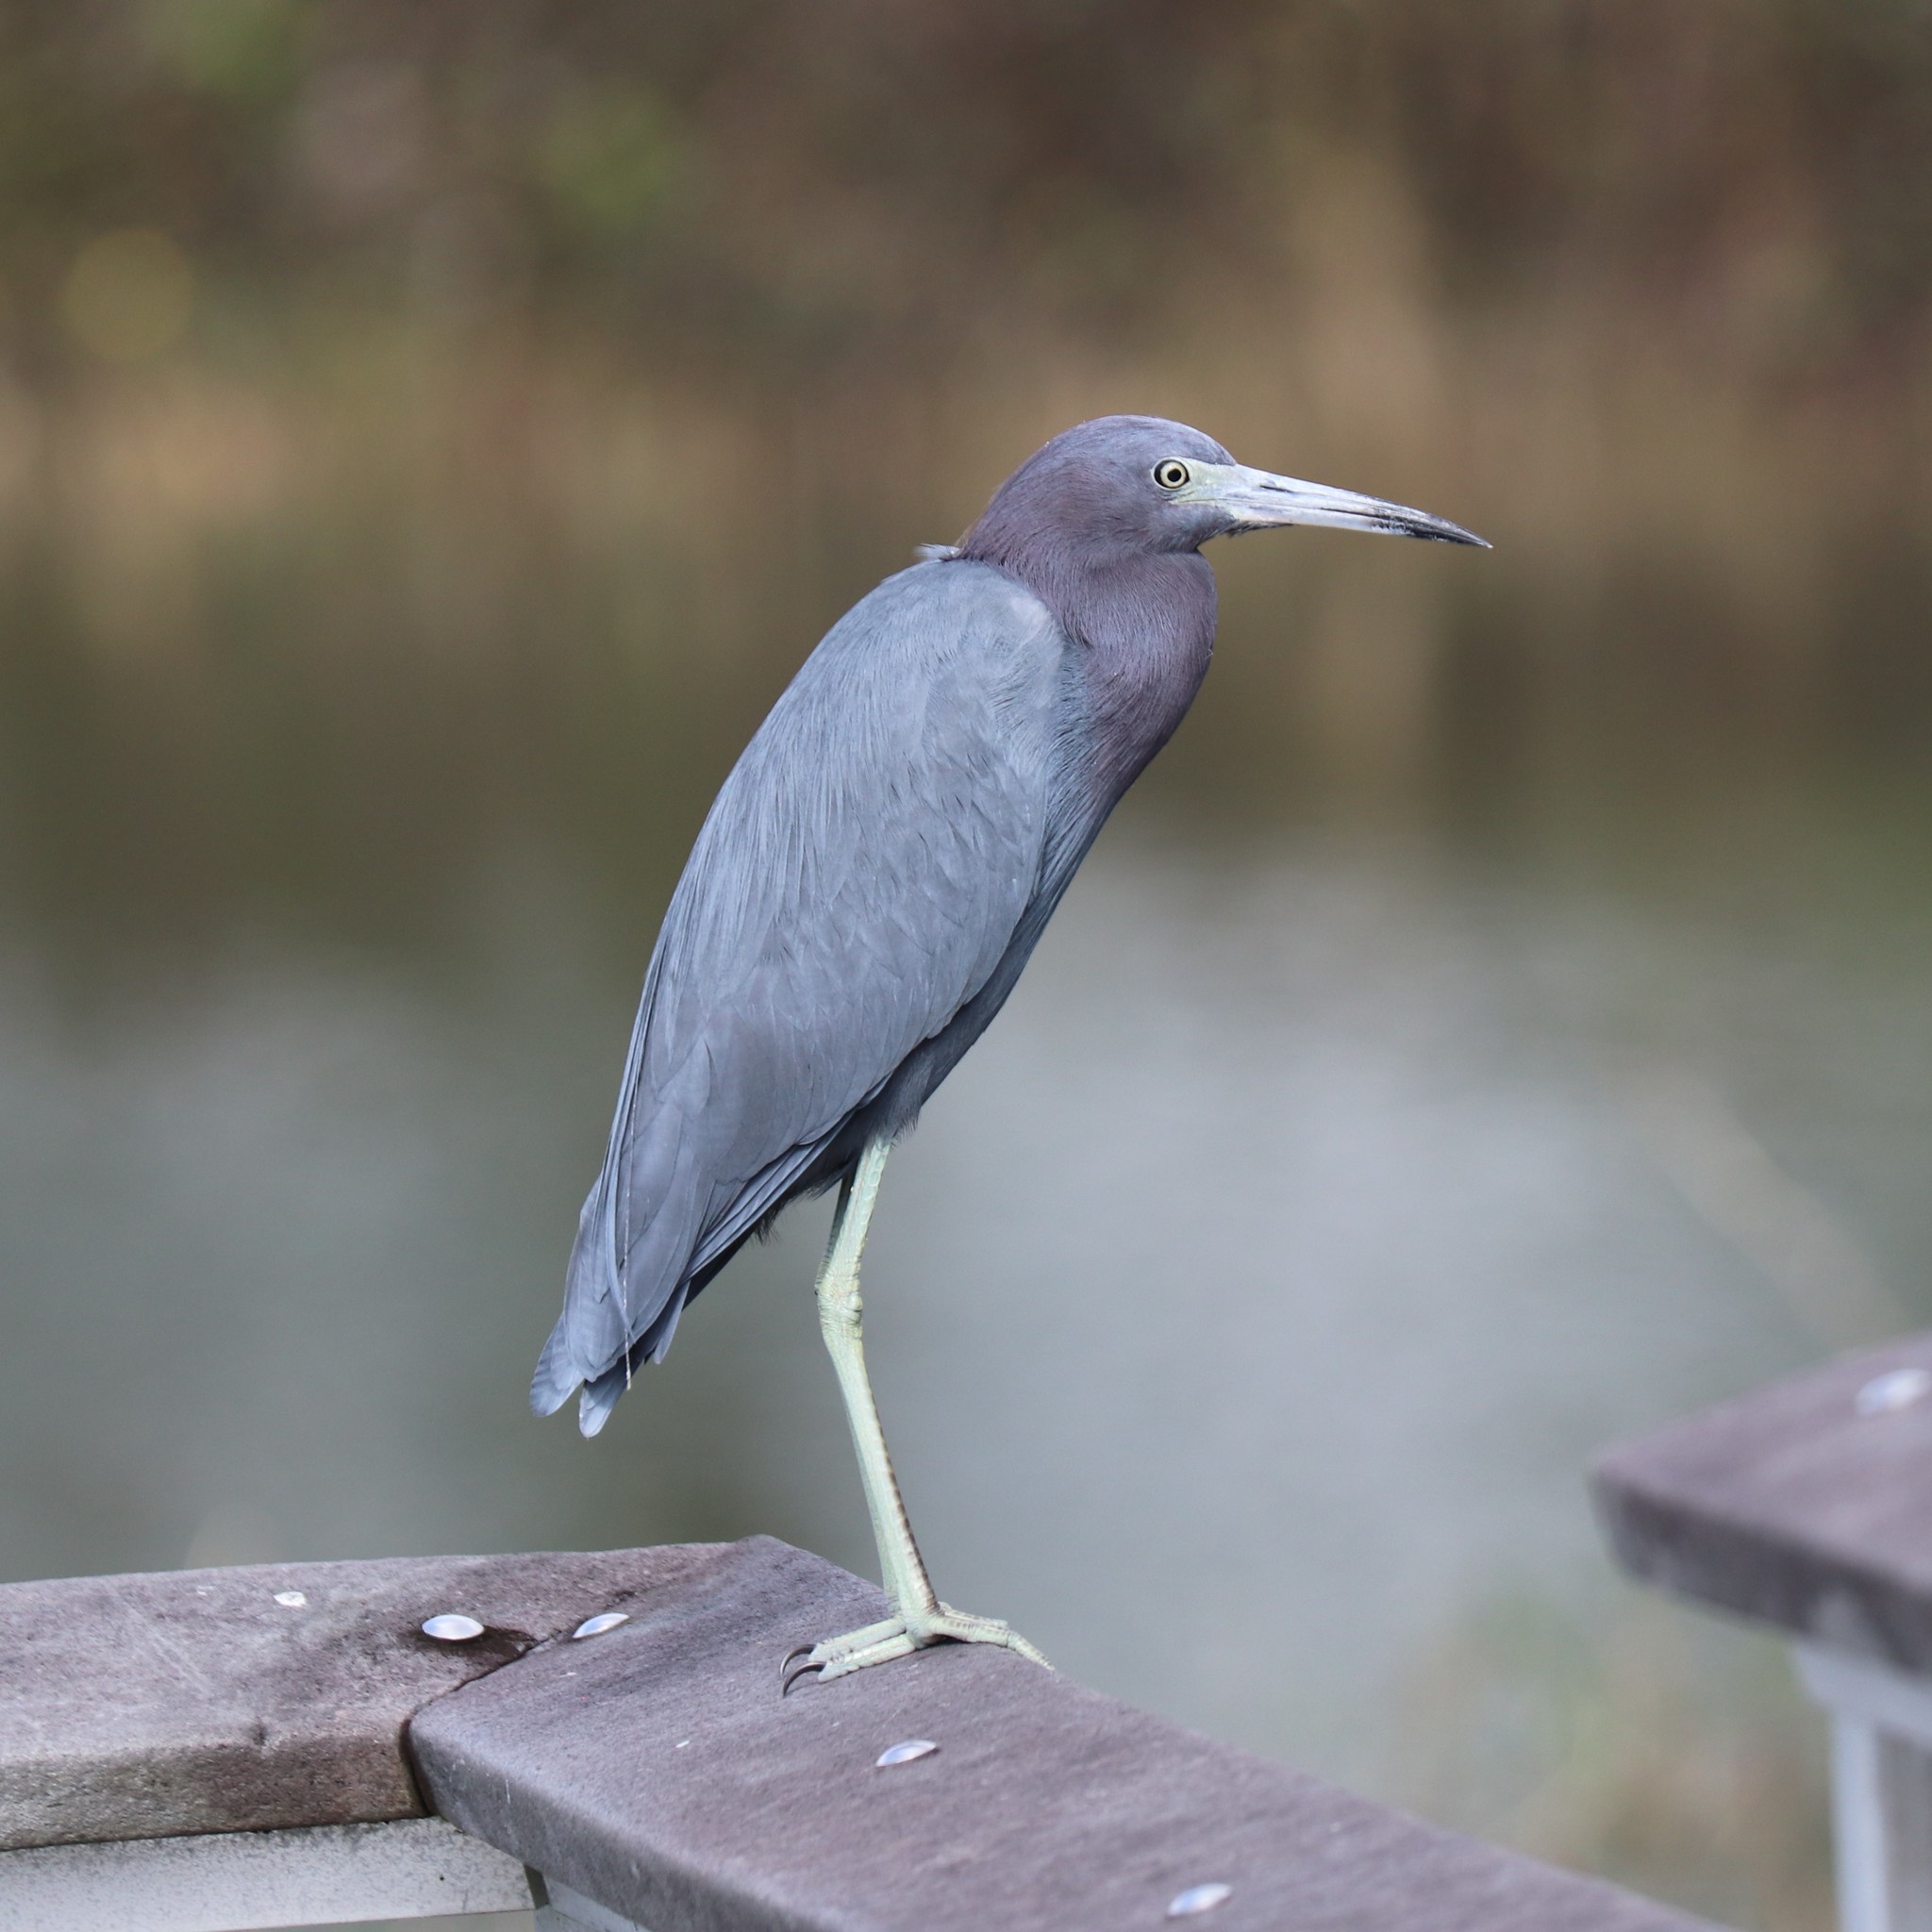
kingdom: Animalia
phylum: Chordata
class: Aves
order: Pelecaniformes
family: Ardeidae
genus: Egretta
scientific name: Egretta caerulea
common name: Little blue heron
